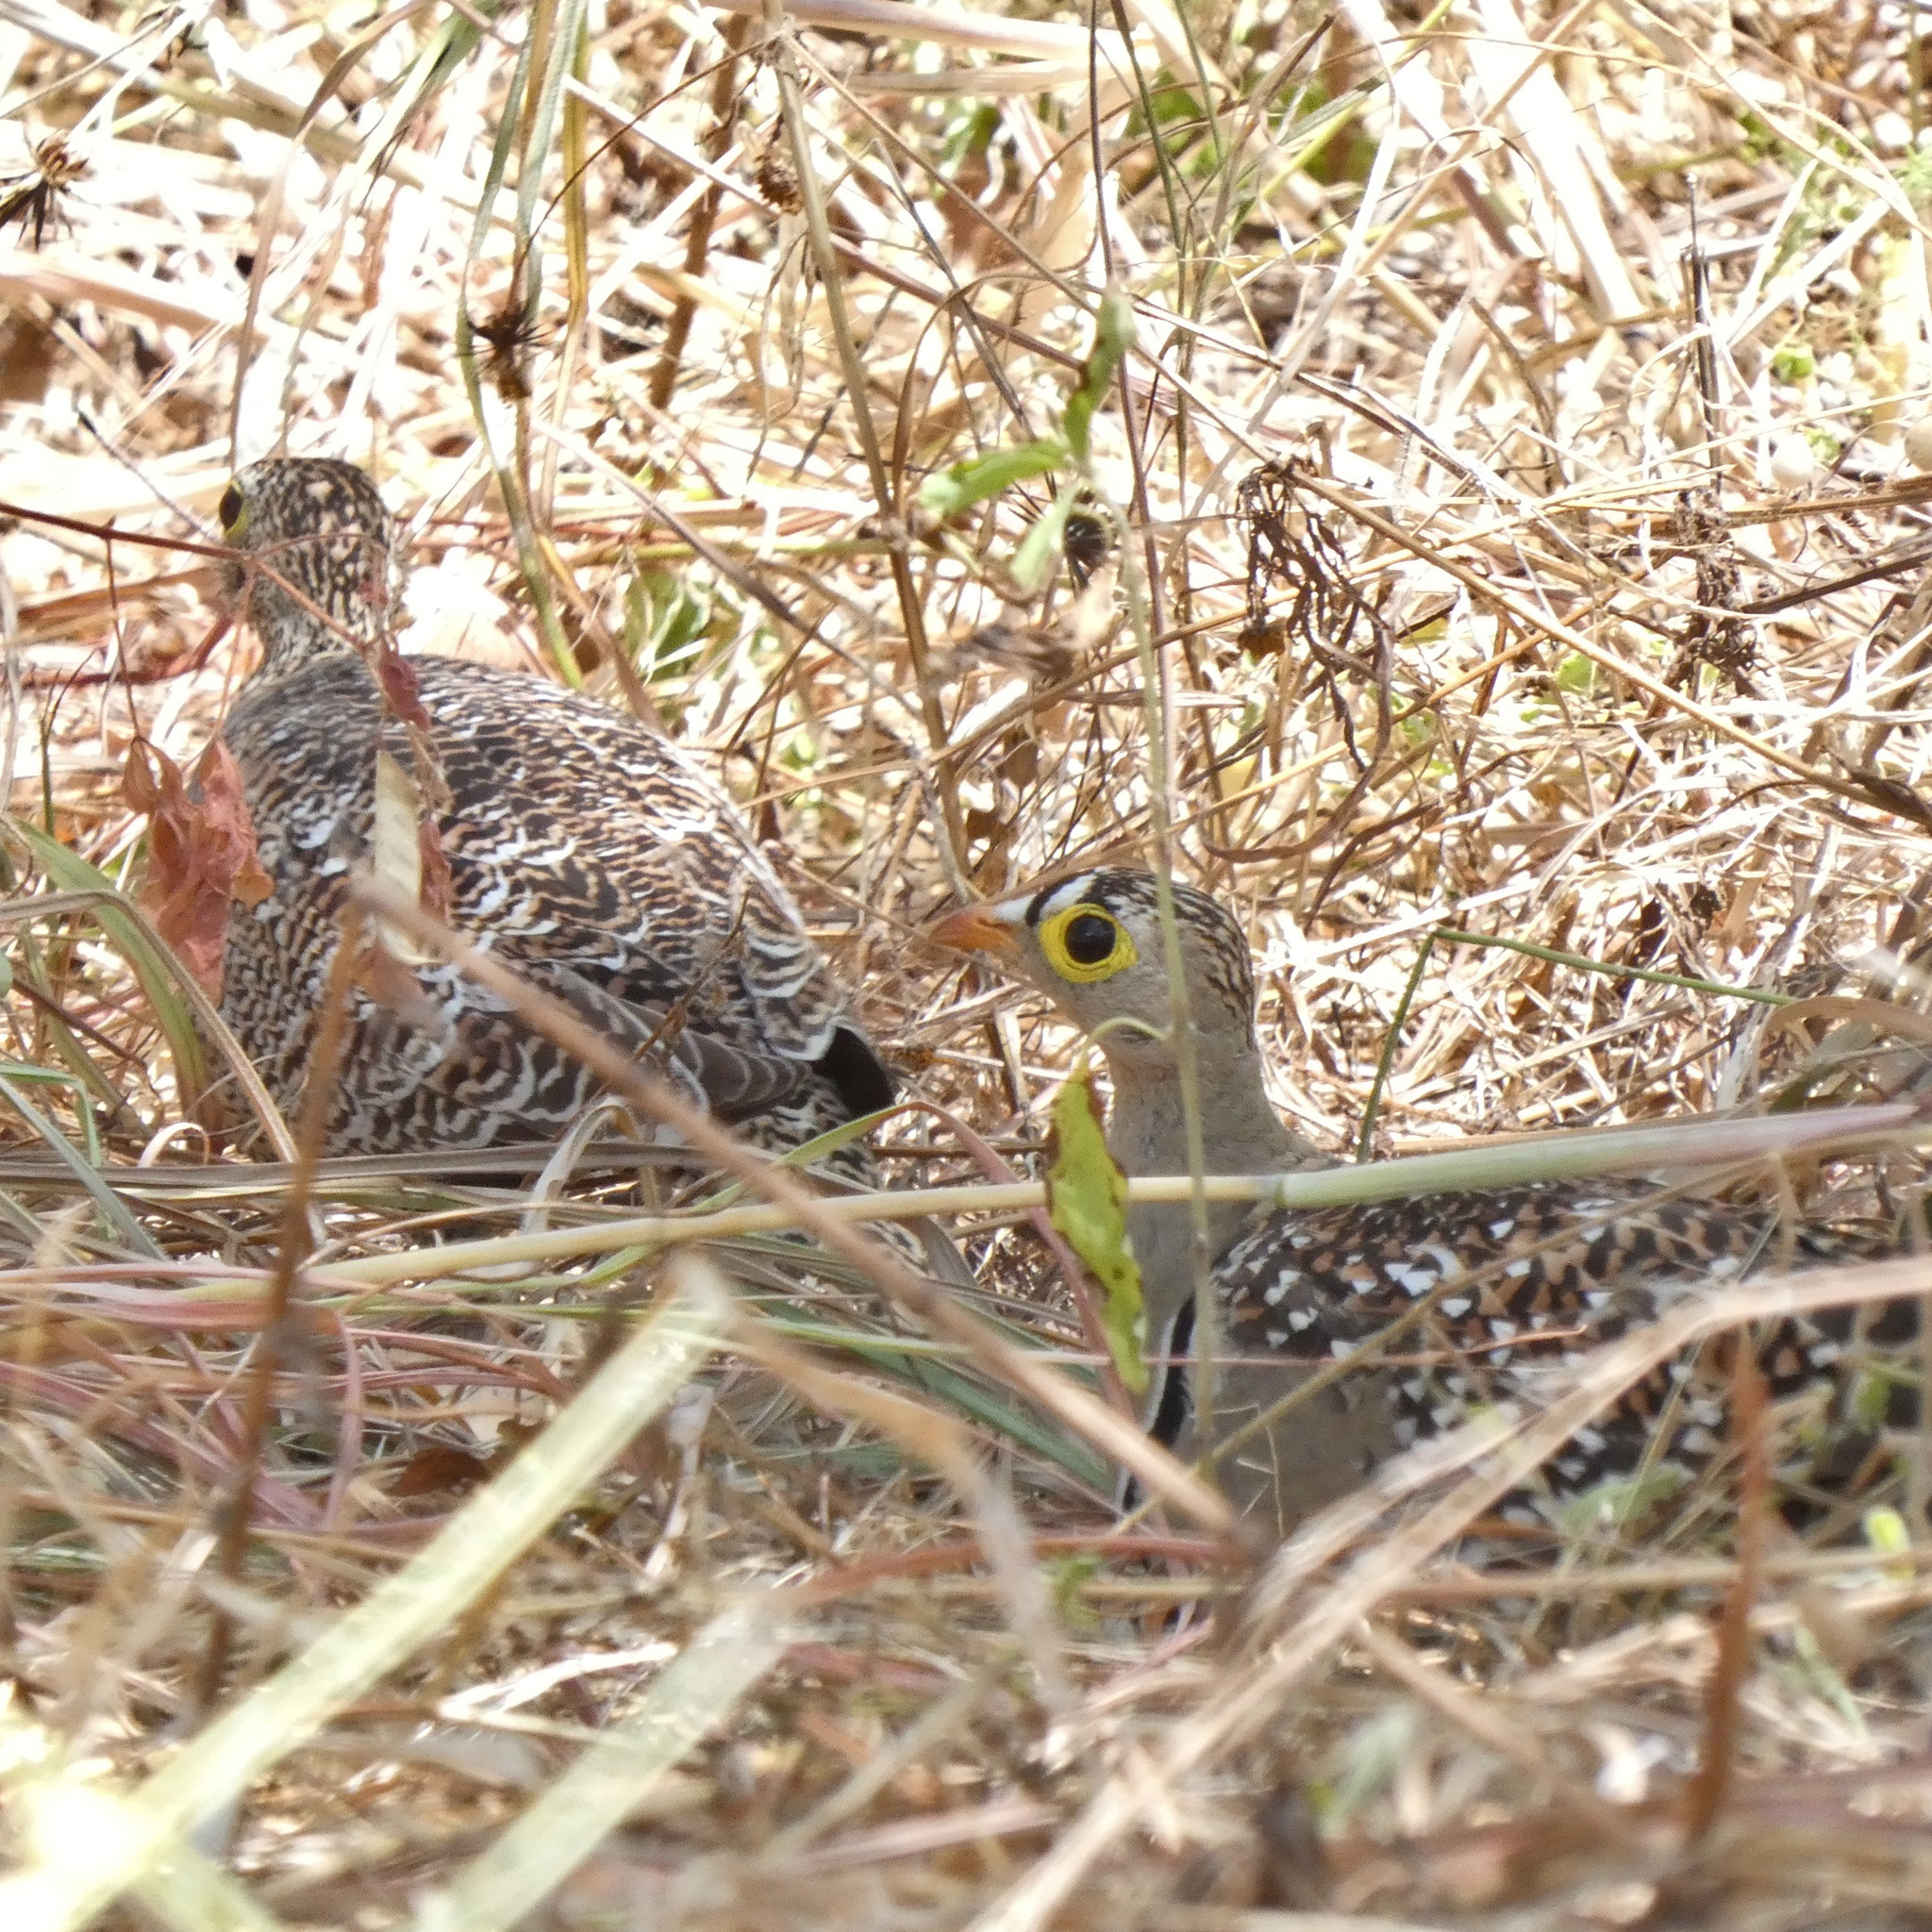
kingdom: Animalia
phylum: Chordata
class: Aves
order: Pteroclidiformes
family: Pteroclididae
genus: Pterocles
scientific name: Pterocles bicinctus
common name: Double-banded sandgrouse
